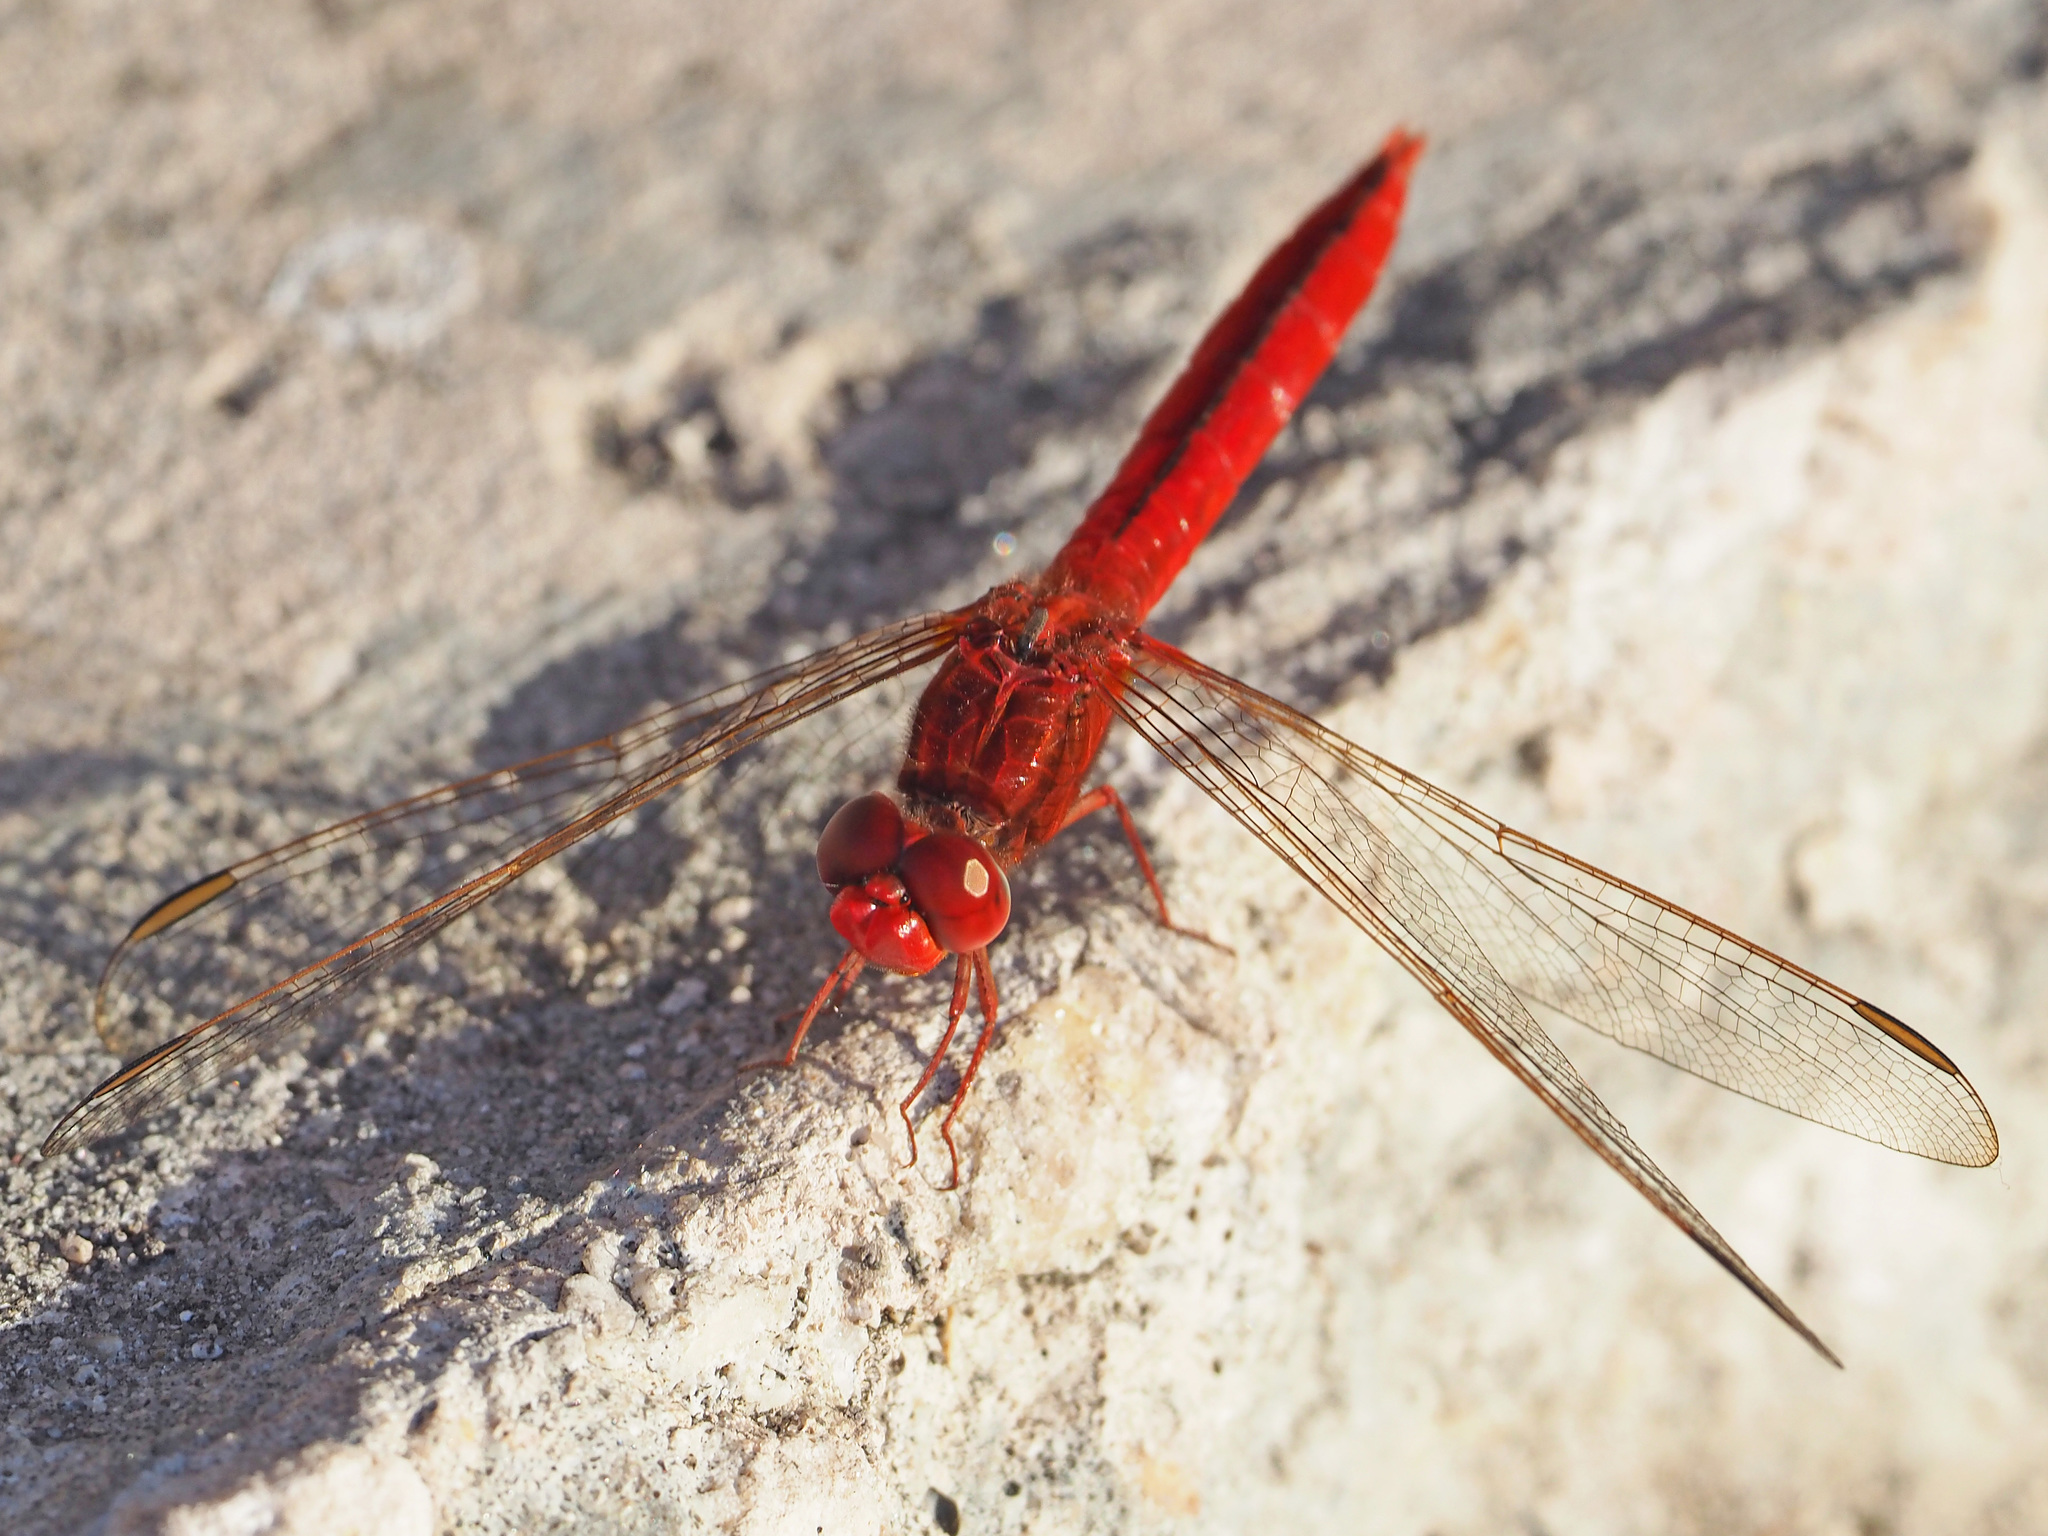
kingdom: Animalia
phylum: Arthropoda
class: Insecta
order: Odonata
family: Libellulidae
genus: Crocothemis
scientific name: Crocothemis servilia
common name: Scarlet skimmer
